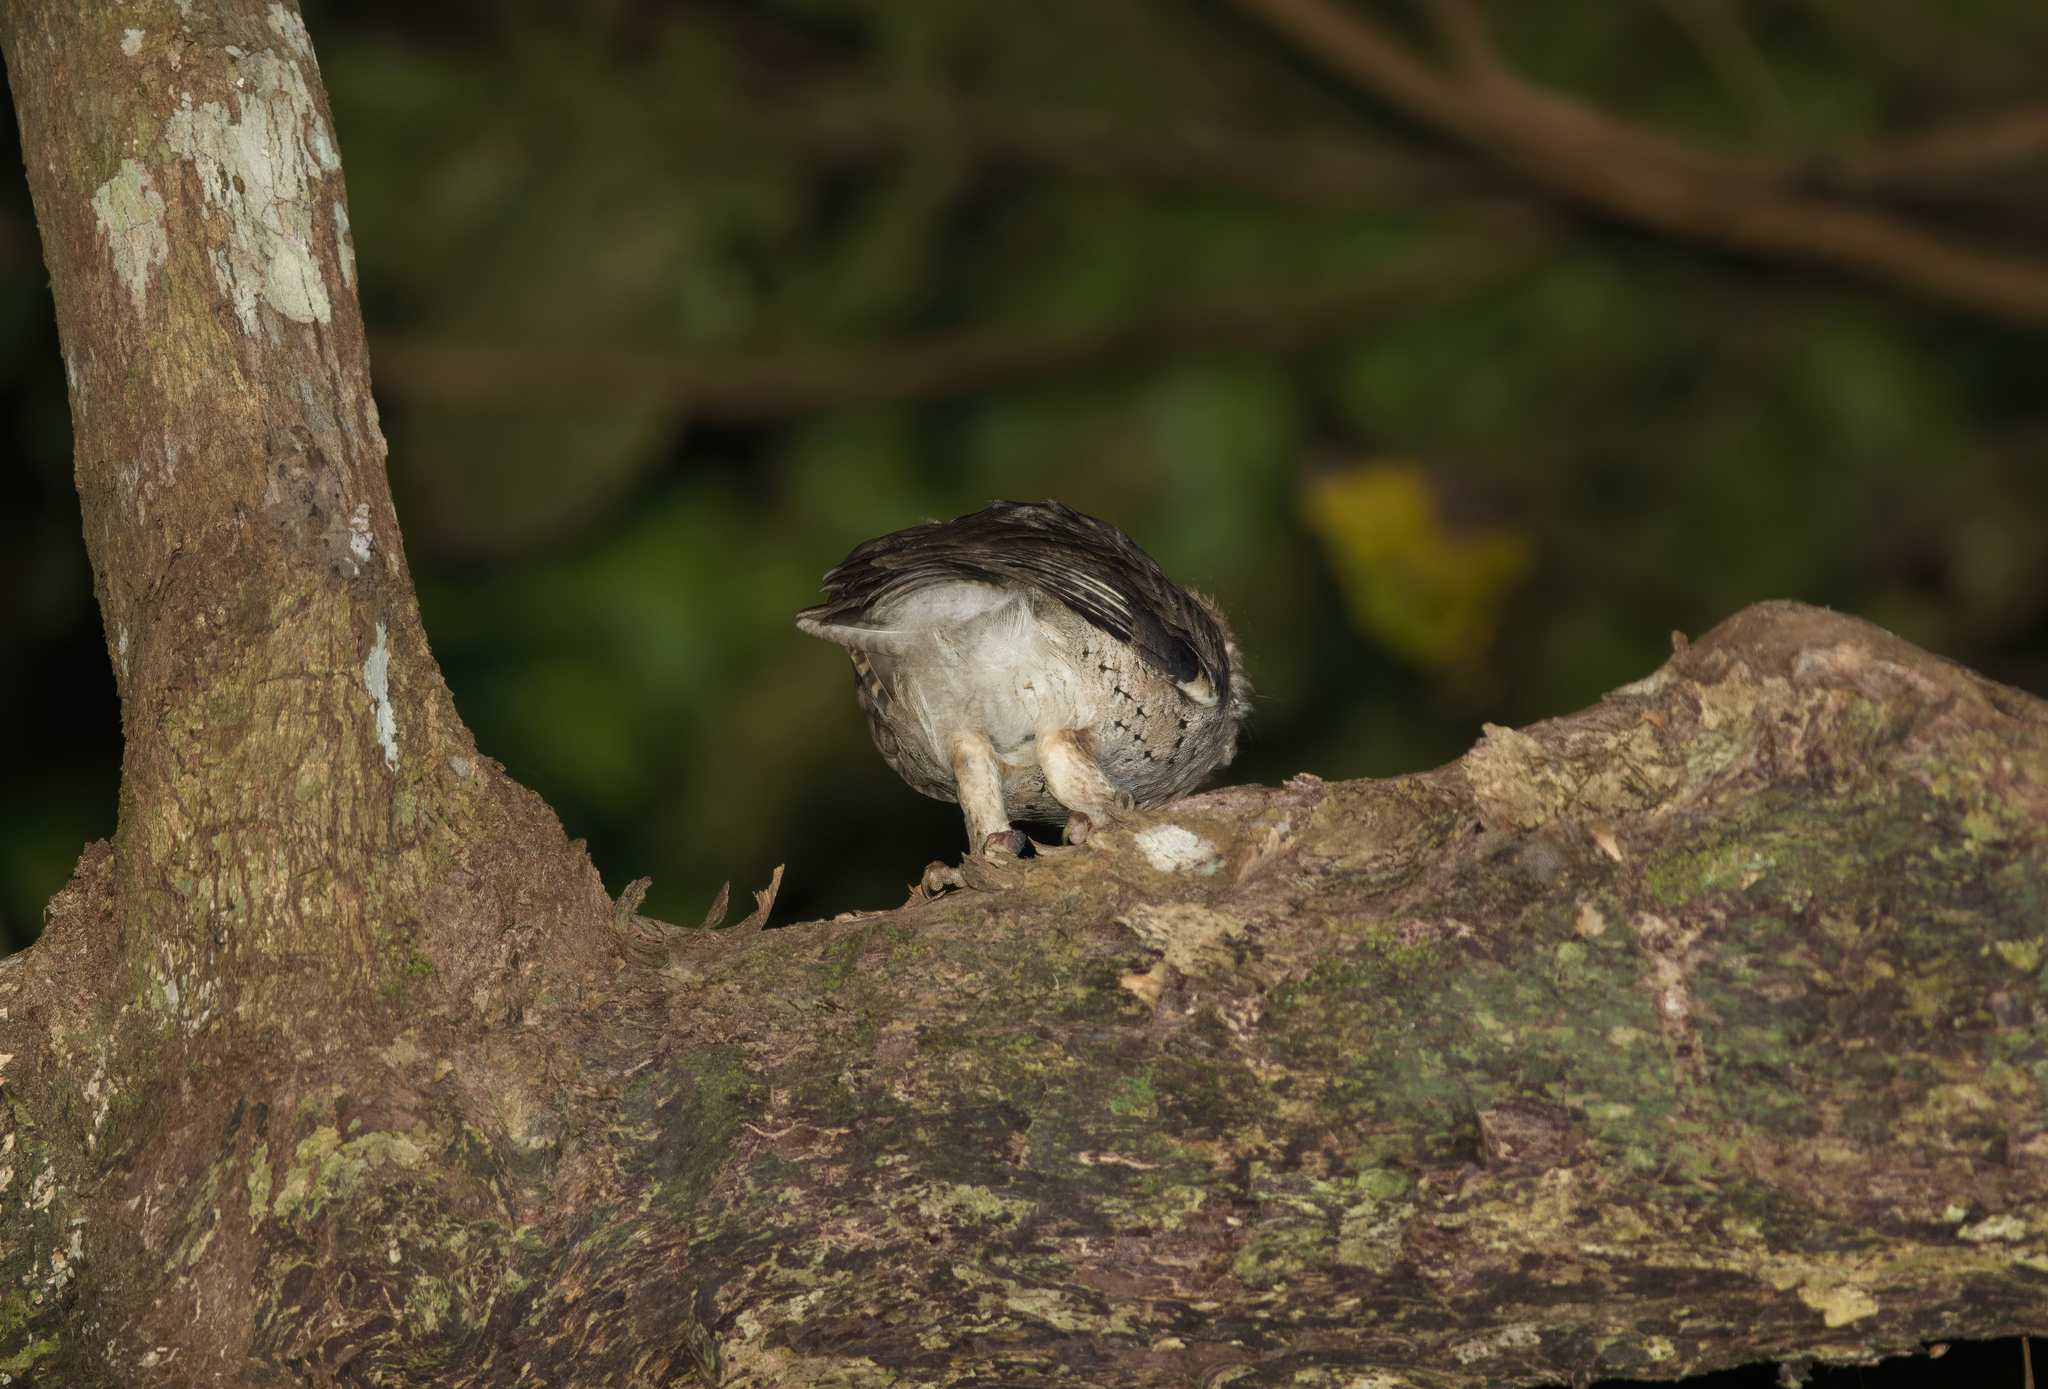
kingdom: Animalia
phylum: Chordata
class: Aves
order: Strigiformes
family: Strigidae
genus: Otus
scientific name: Otus lempiji
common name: Sunda scops-owl
